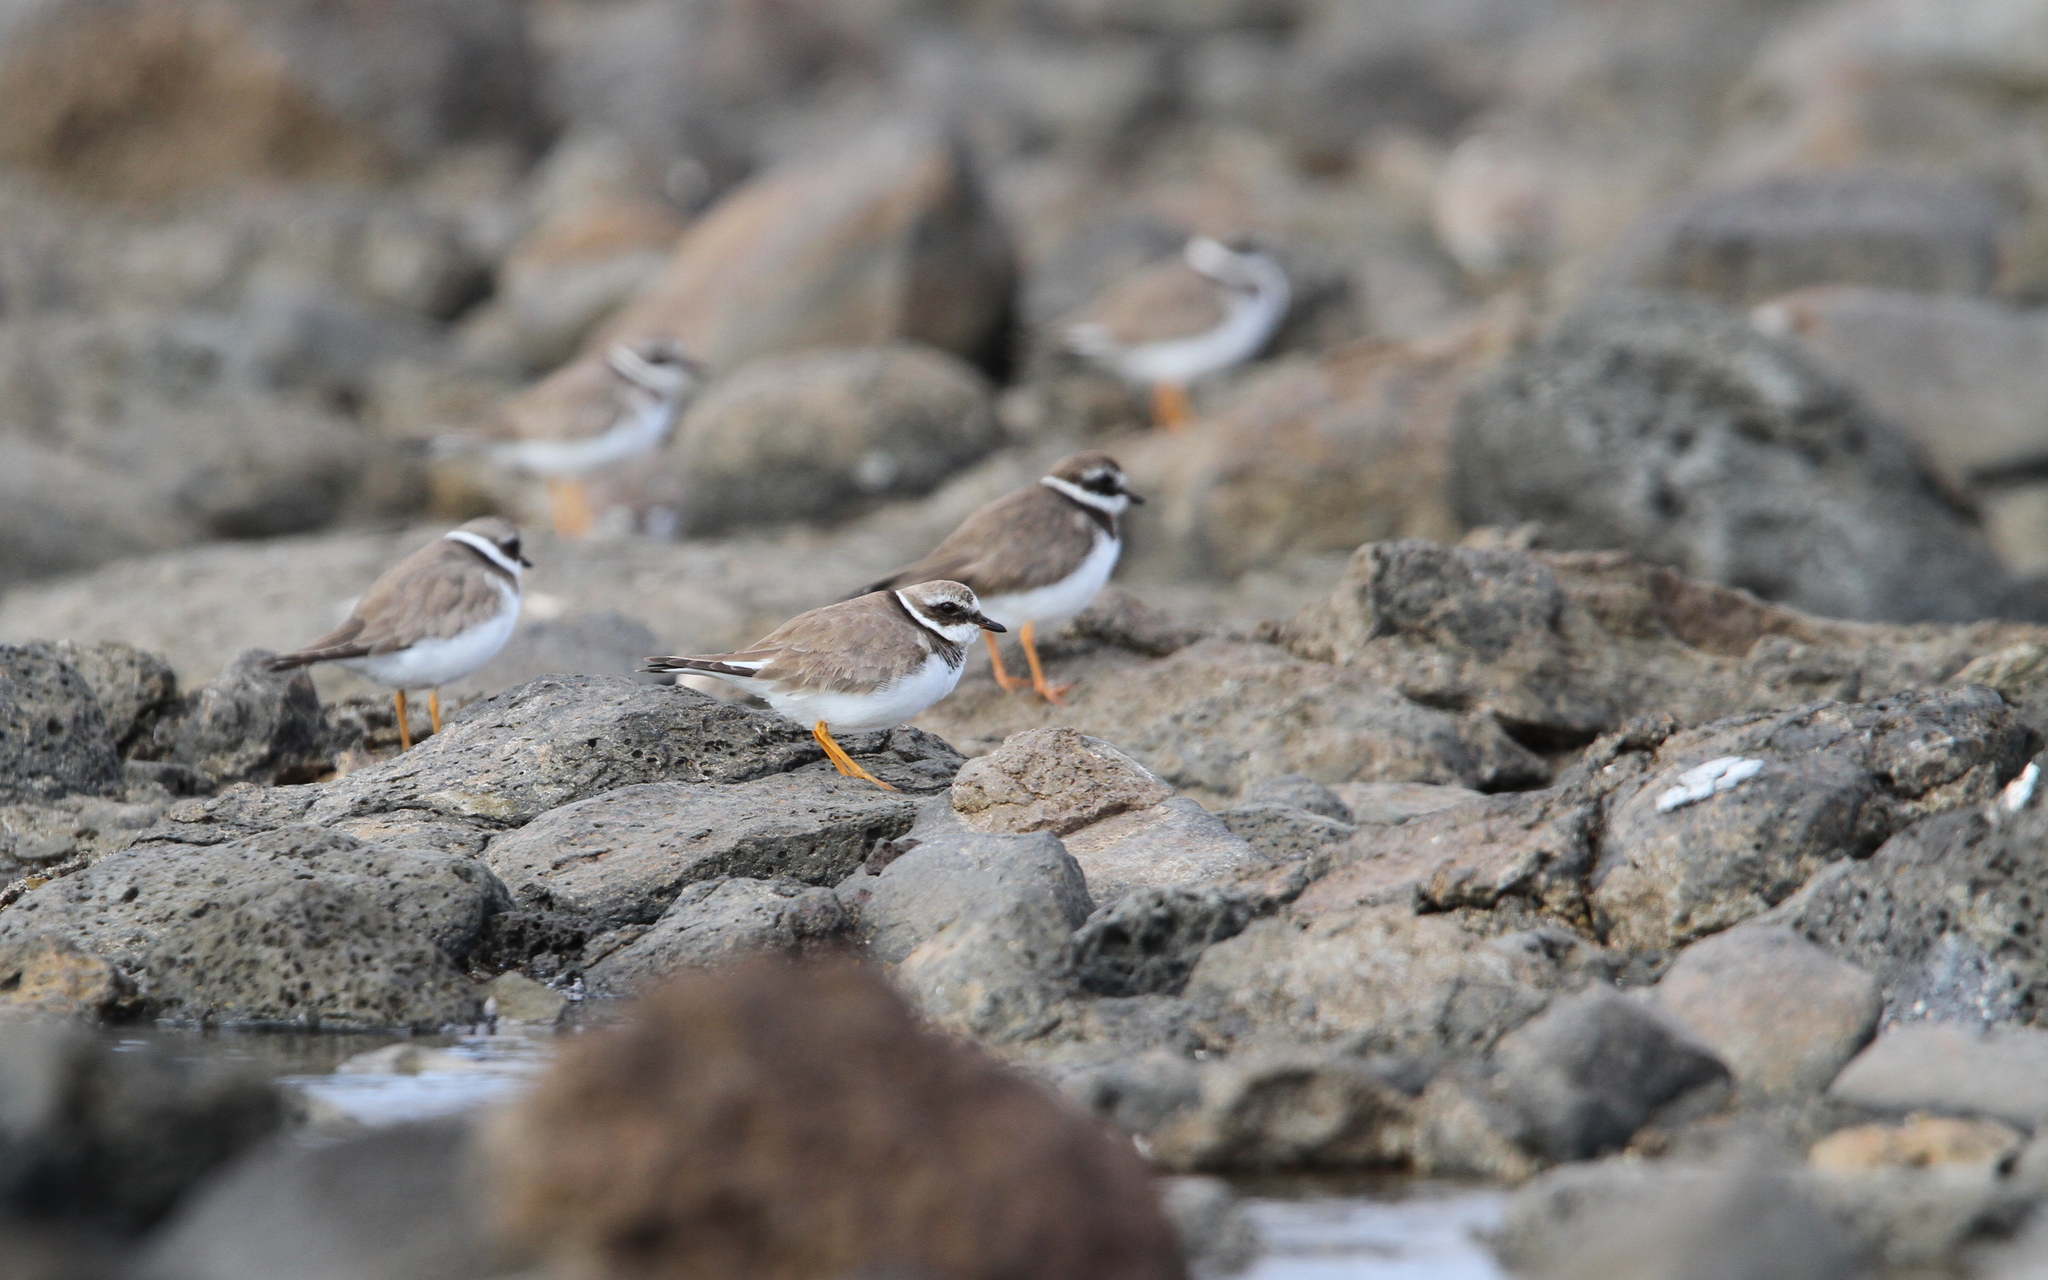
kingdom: Animalia
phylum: Chordata
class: Aves
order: Charadriiformes
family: Charadriidae
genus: Charadrius
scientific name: Charadrius hiaticula
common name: Common ringed plover
